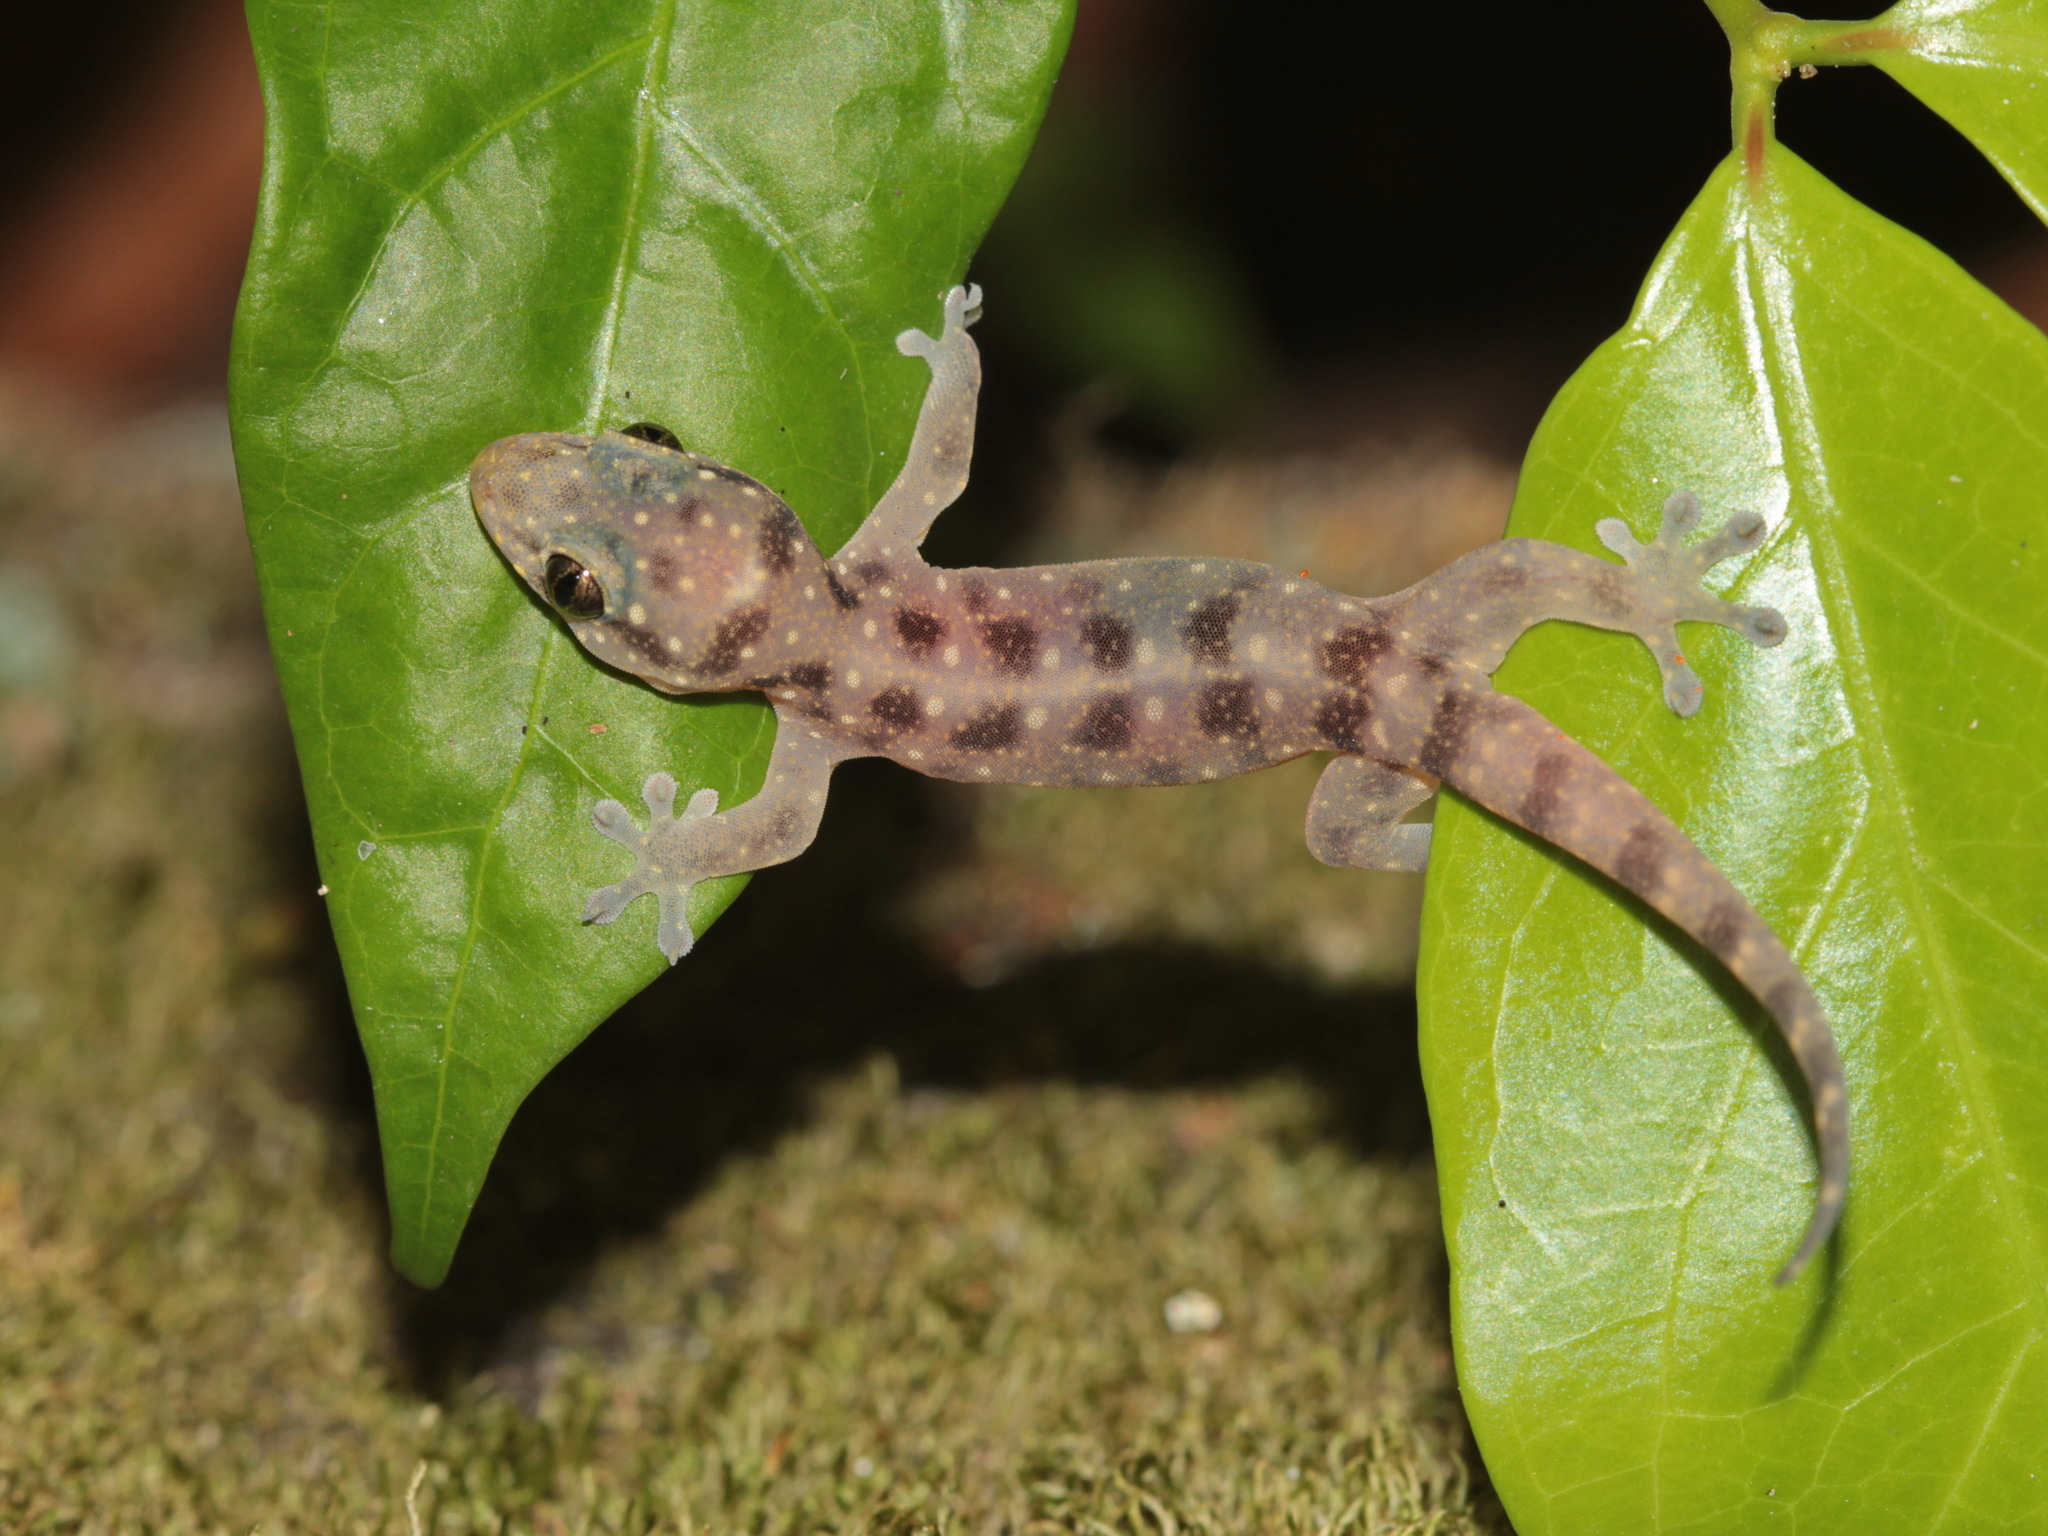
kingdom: Animalia
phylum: Chordata
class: Squamata
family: Gekkonidae
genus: Gehyra
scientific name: Gehyra fehlmanni
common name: Fehlmann's dtella
